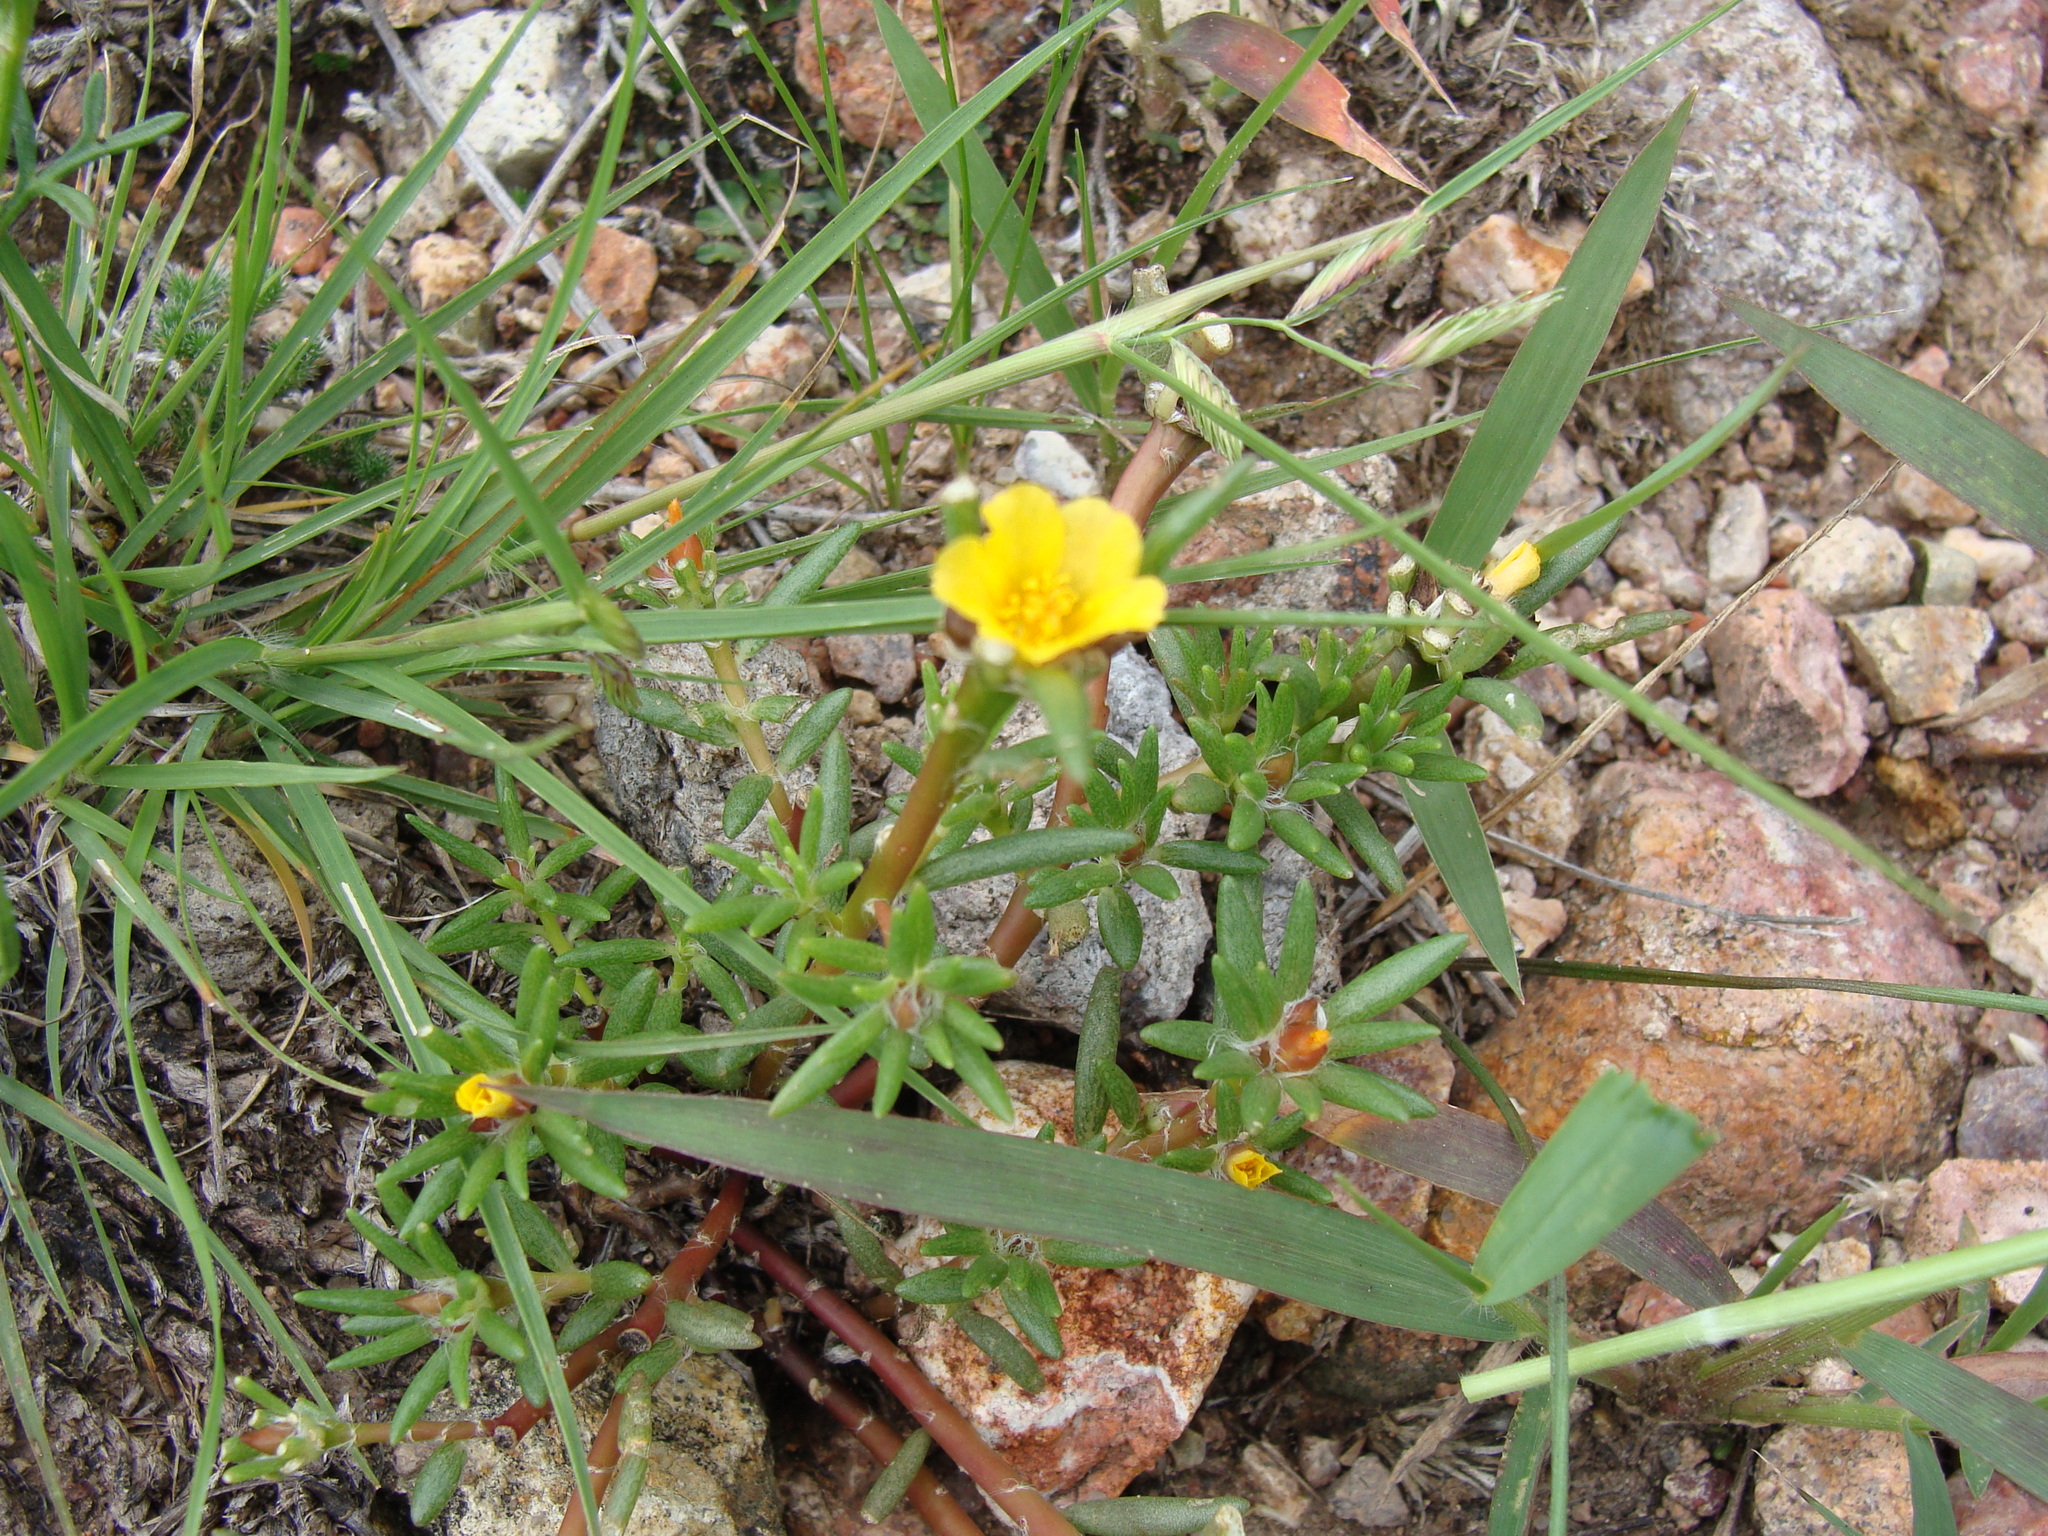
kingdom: Plantae
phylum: Tracheophyta
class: Magnoliopsida
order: Caryophyllales
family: Portulacaceae
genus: Portulaca
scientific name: Portulaca mexicana
